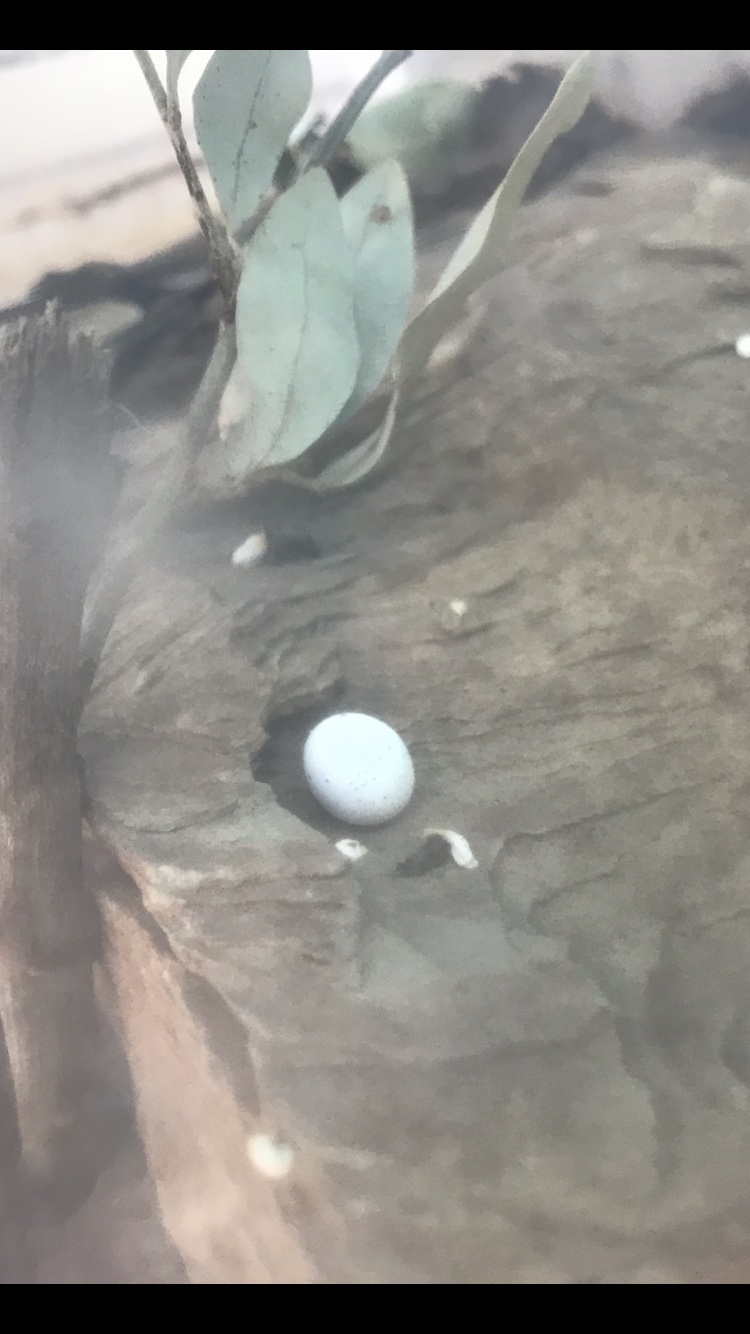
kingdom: Animalia
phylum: Chordata
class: Squamata
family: Gekkonidae
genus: Hemidactylus
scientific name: Hemidactylus turcicus
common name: Turkish gecko
